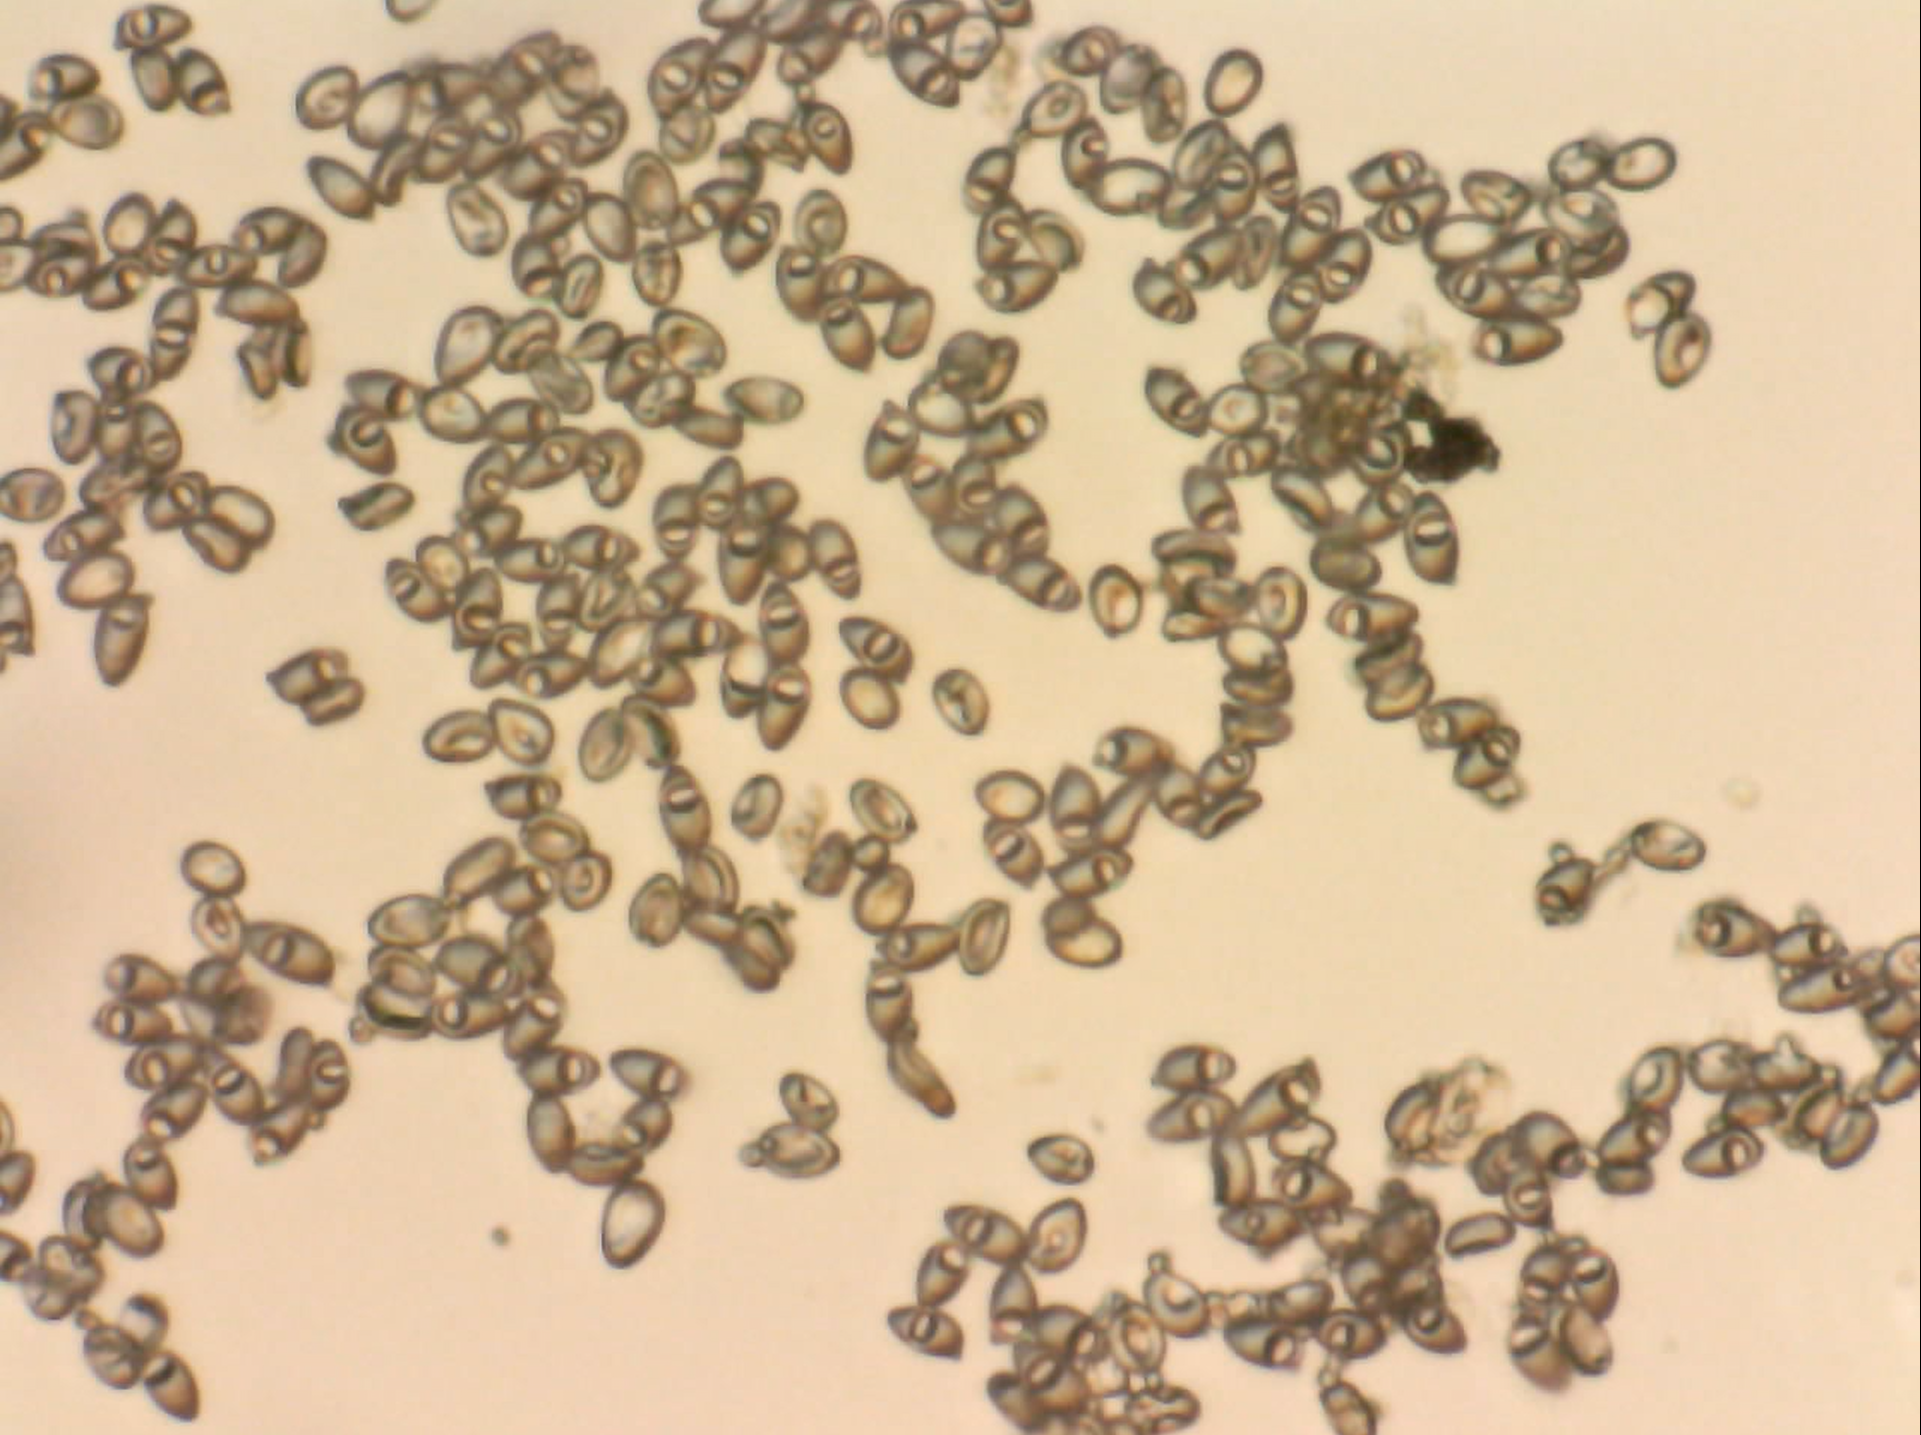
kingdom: Fungi
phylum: Basidiomycota
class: Agaricomycetes
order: Agaricales
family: Agaricaceae
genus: Leucoagaricus
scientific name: Leucoagaricus leucothites
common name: White dapperling
